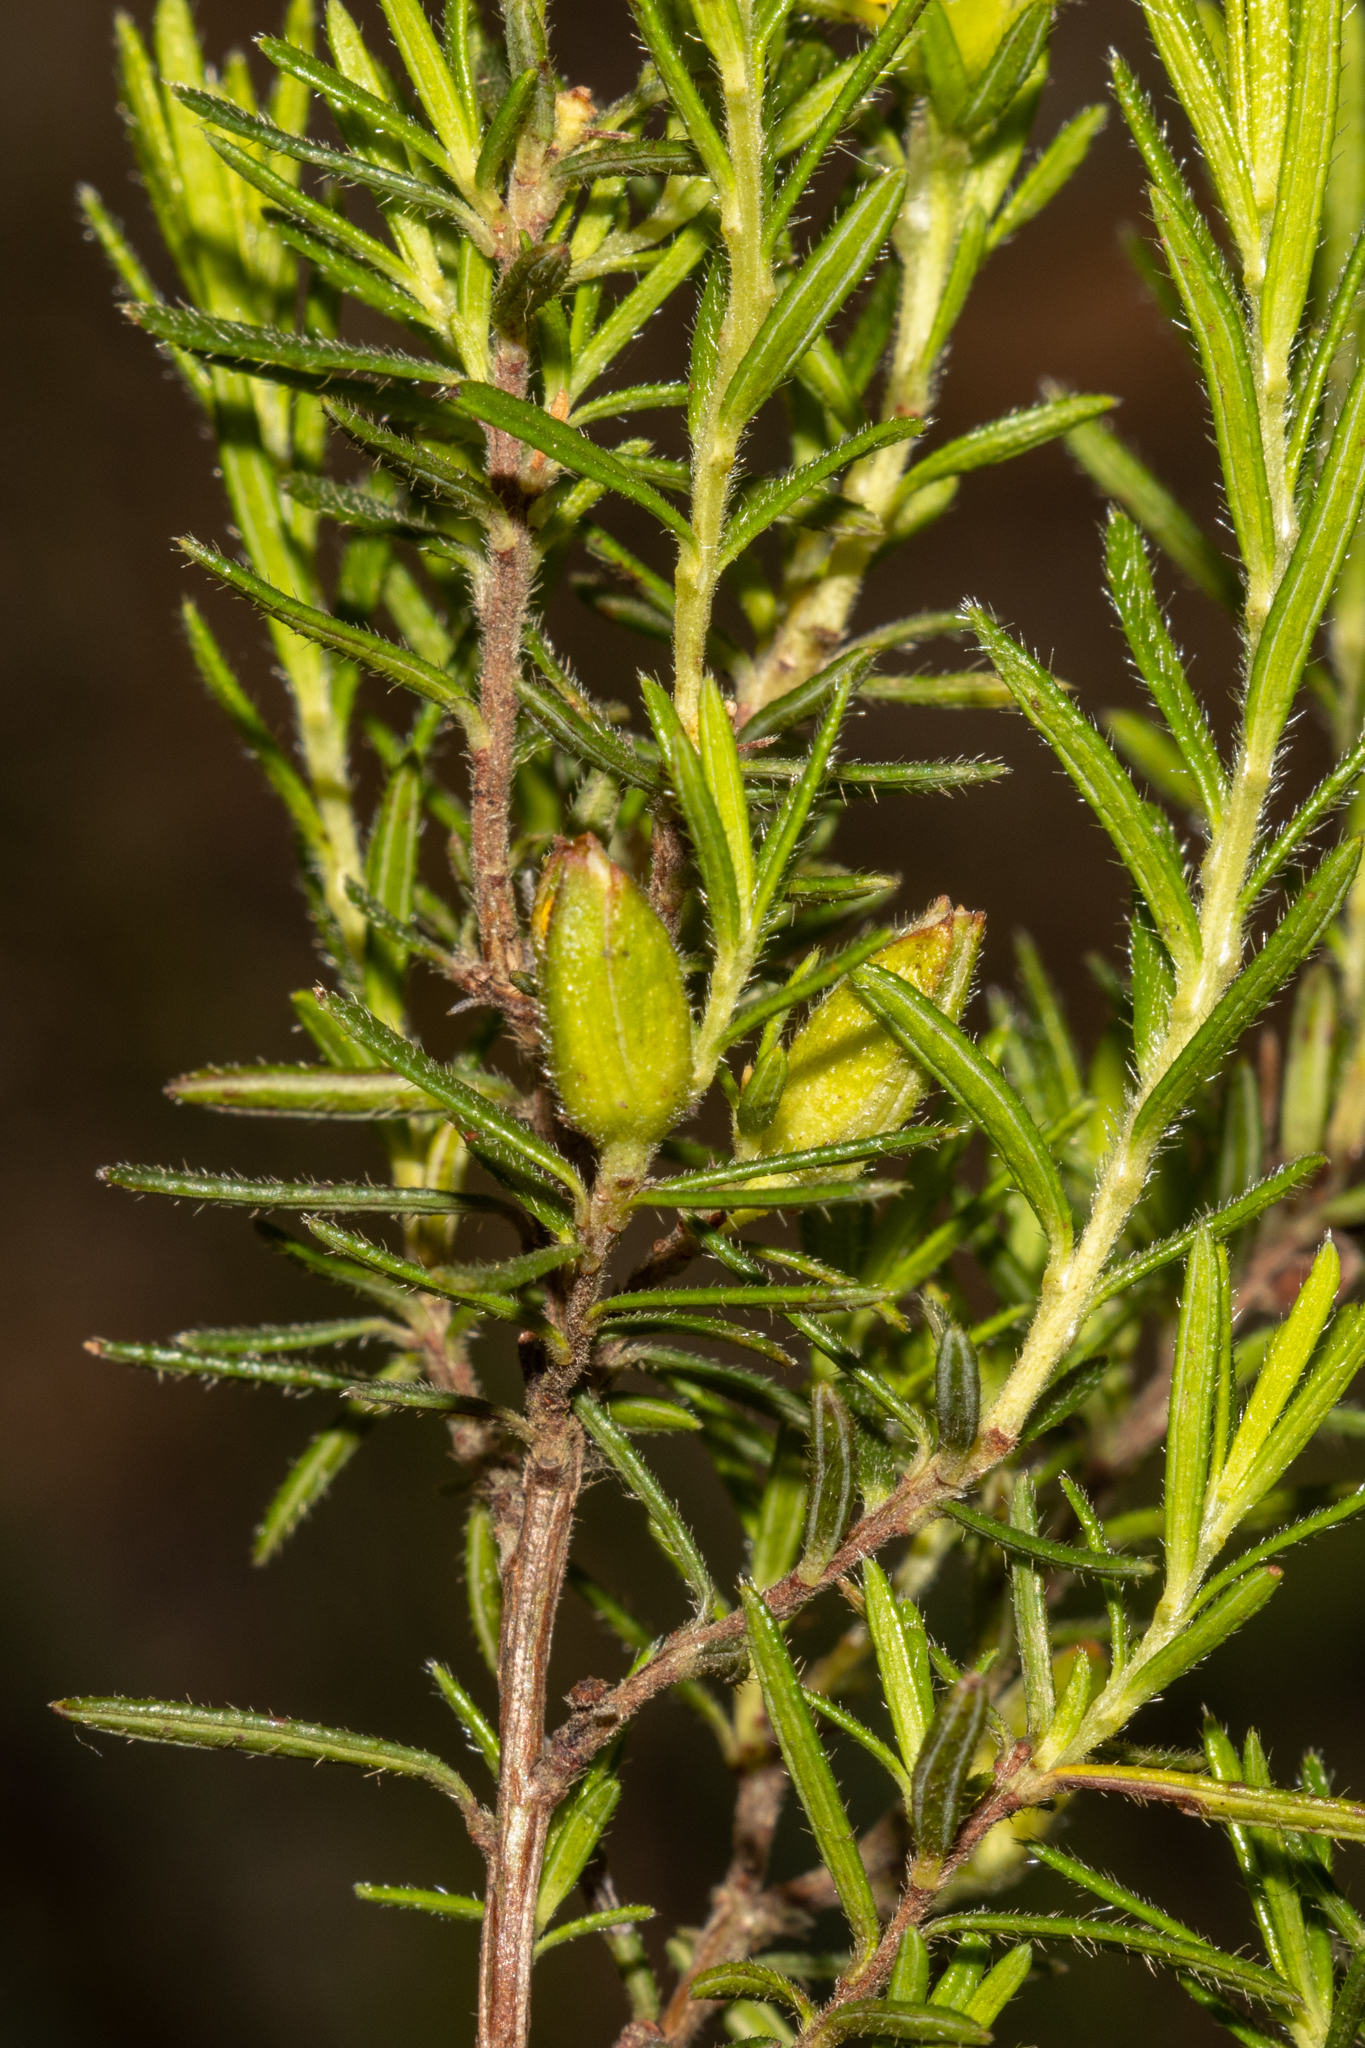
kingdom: Plantae
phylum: Tracheophyta
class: Magnoliopsida
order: Dilleniales
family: Dilleniaceae
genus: Hibbertia
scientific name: Hibbertia riparia
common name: Erect guinea-flower
